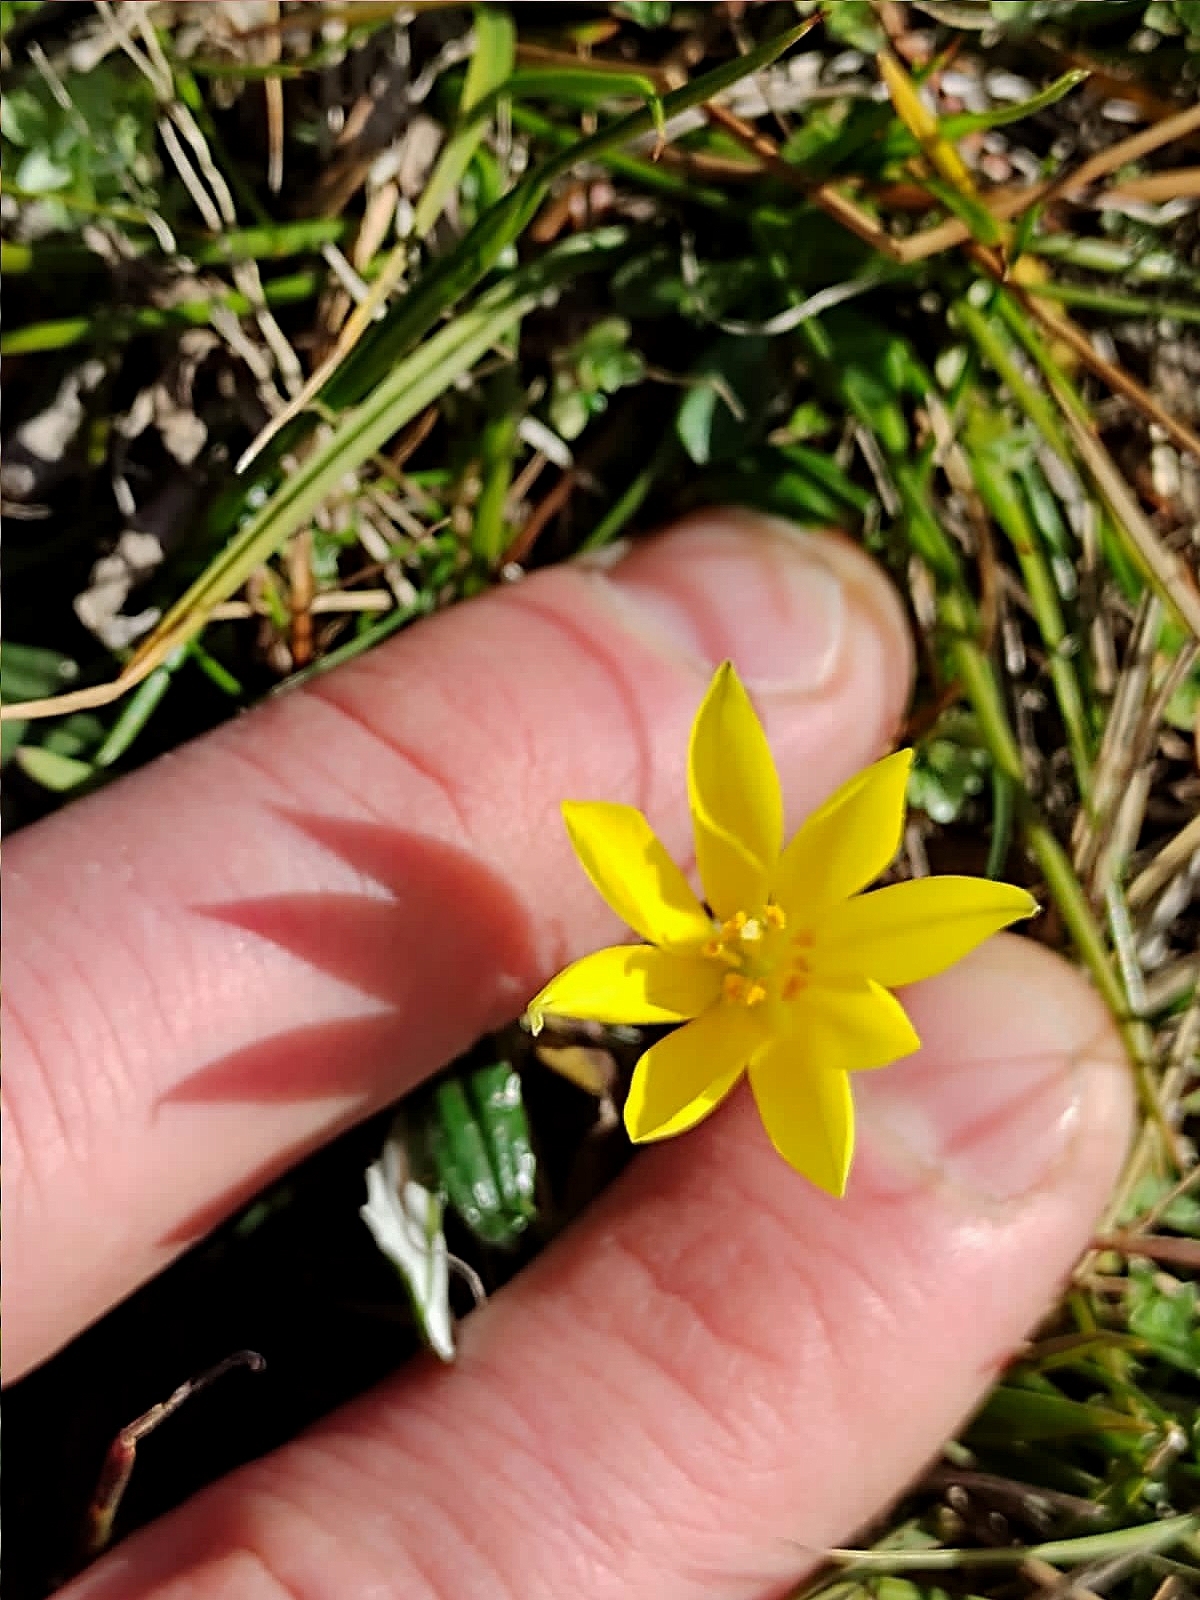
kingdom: Plantae
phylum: Tracheophyta
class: Liliopsida
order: Asparagales
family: Amaryllidaceae
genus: Nothoscordum
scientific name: Nothoscordum dialystemon
